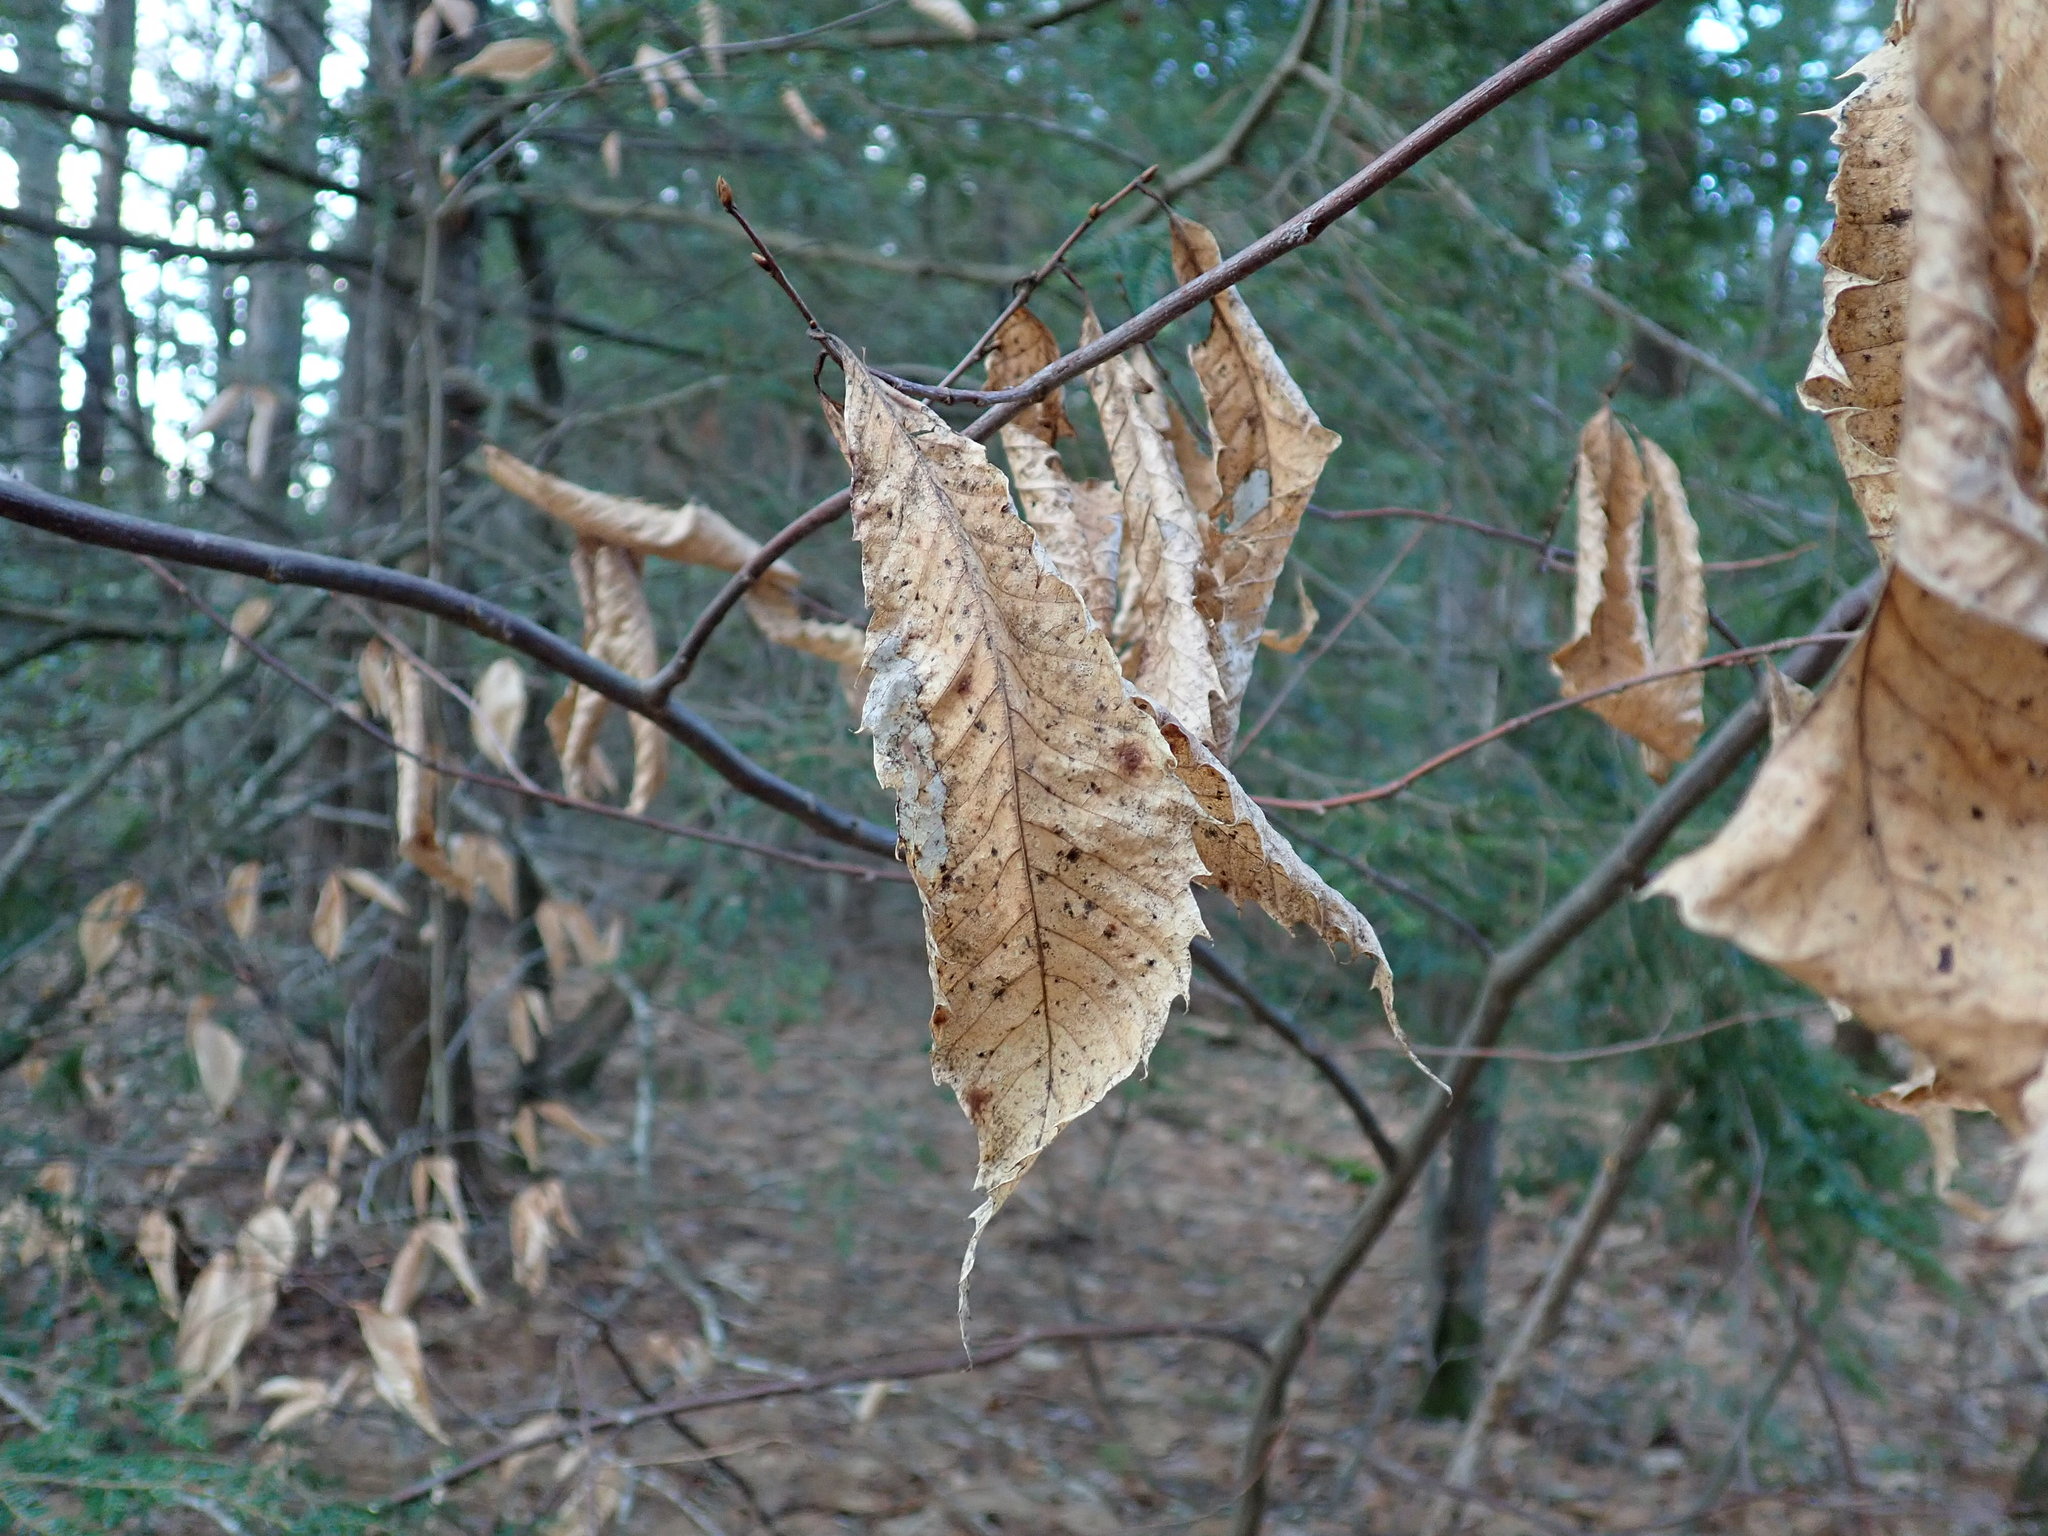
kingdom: Plantae
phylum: Tracheophyta
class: Magnoliopsida
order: Fagales
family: Fagaceae
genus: Castanea
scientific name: Castanea dentata
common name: American chestnut
